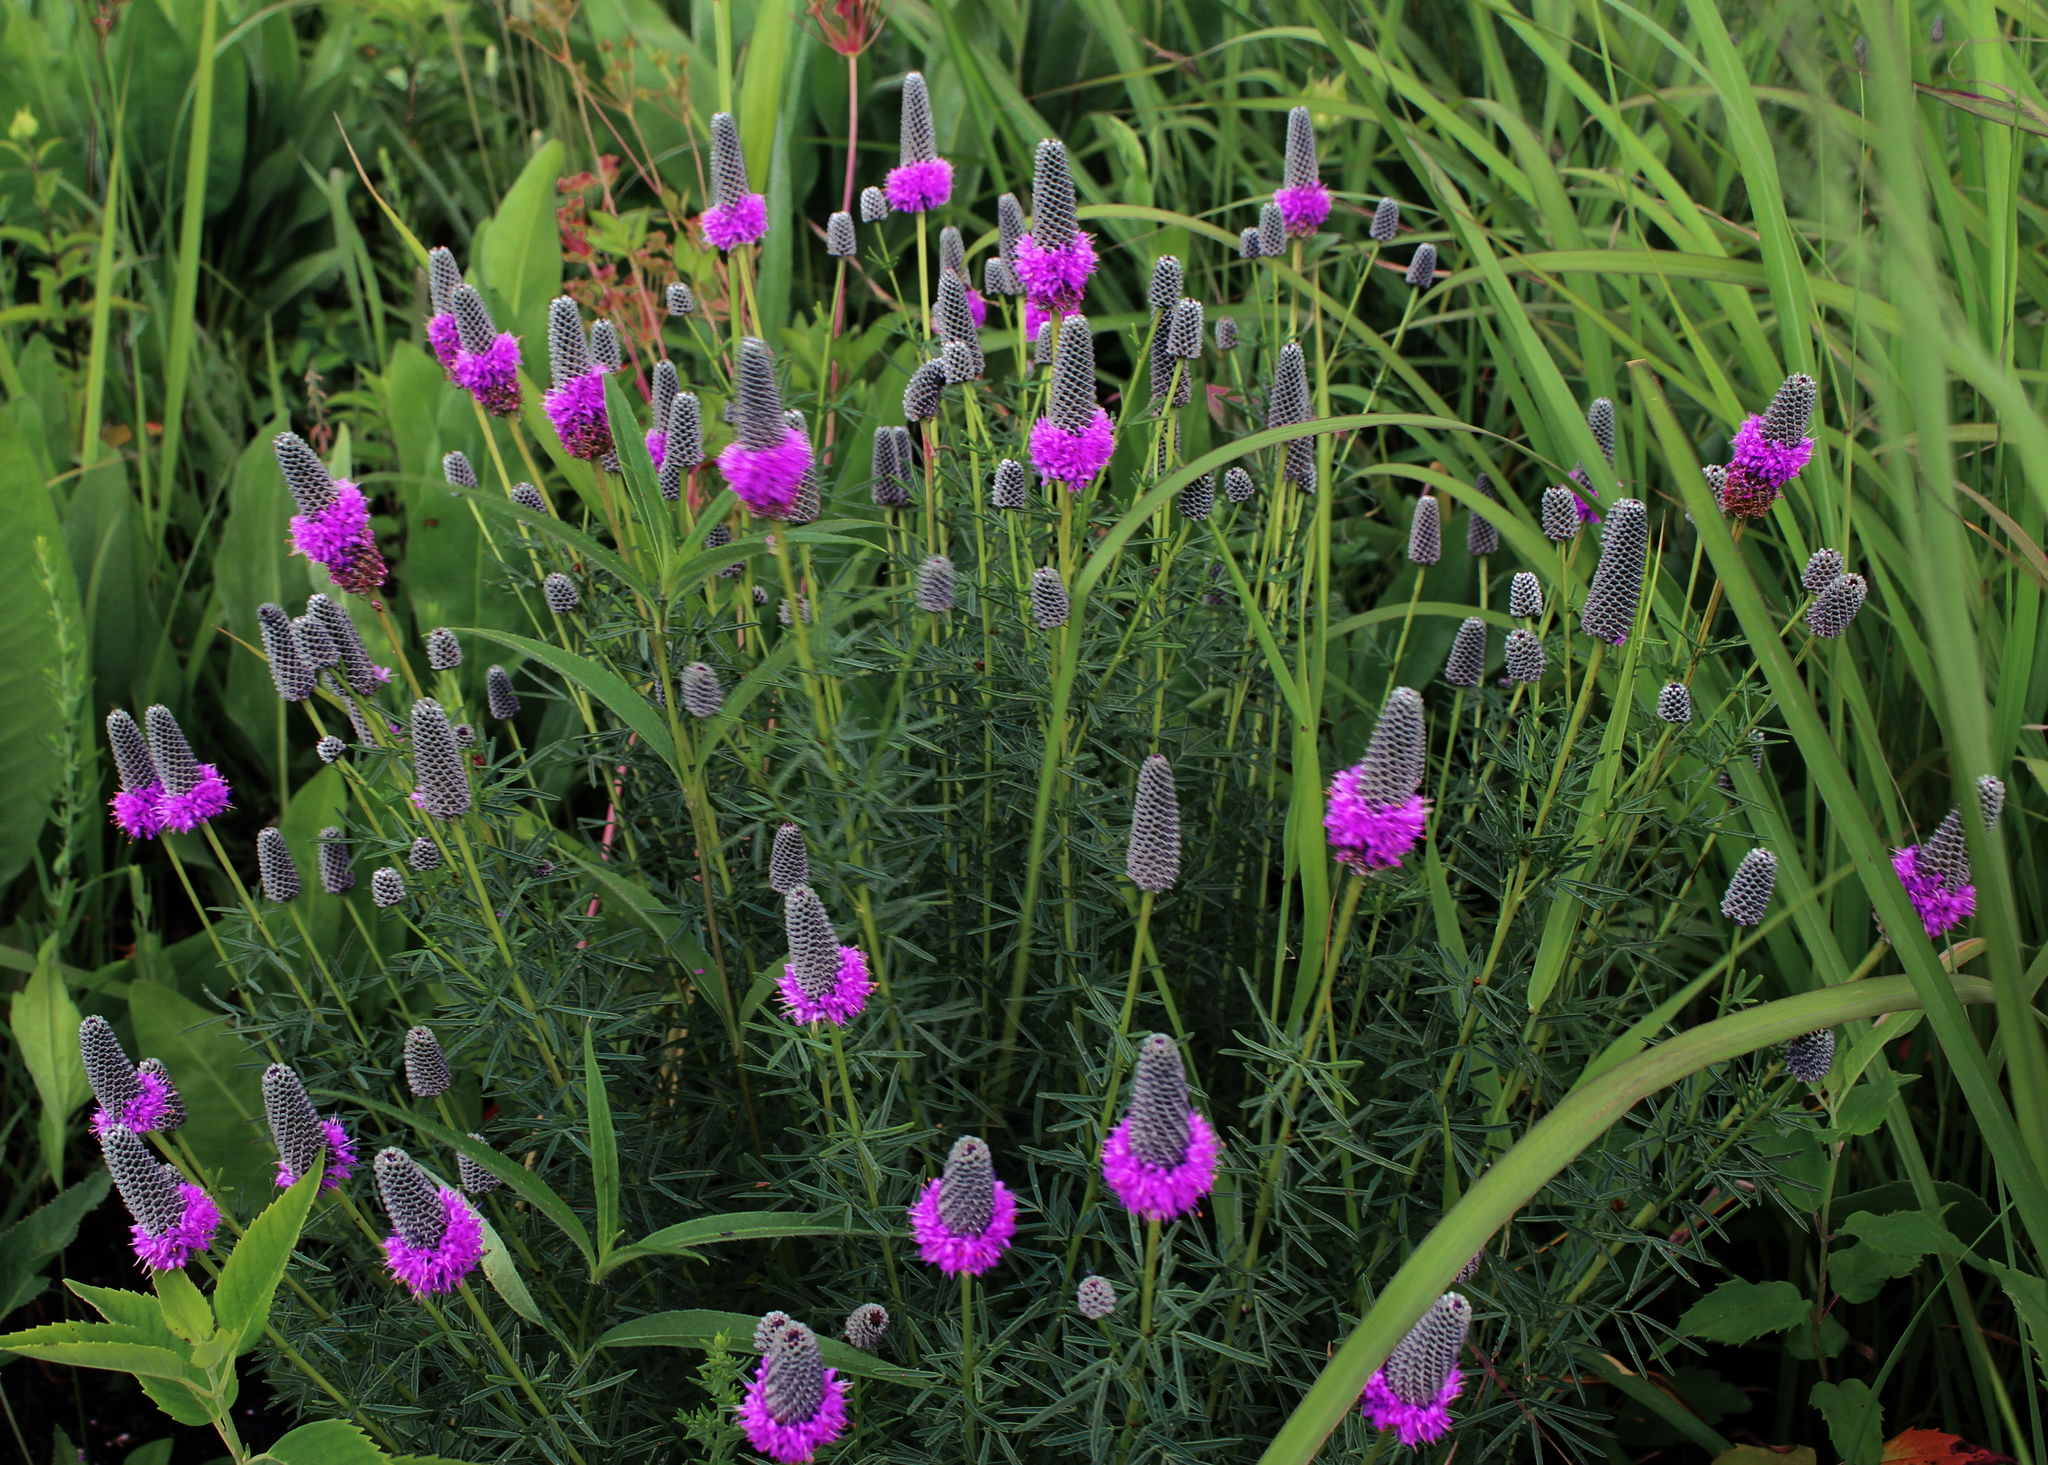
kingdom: Plantae
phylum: Tracheophyta
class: Magnoliopsida
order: Fabales
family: Fabaceae
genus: Dalea
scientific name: Dalea purpurea
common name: Purple prairie-clover
